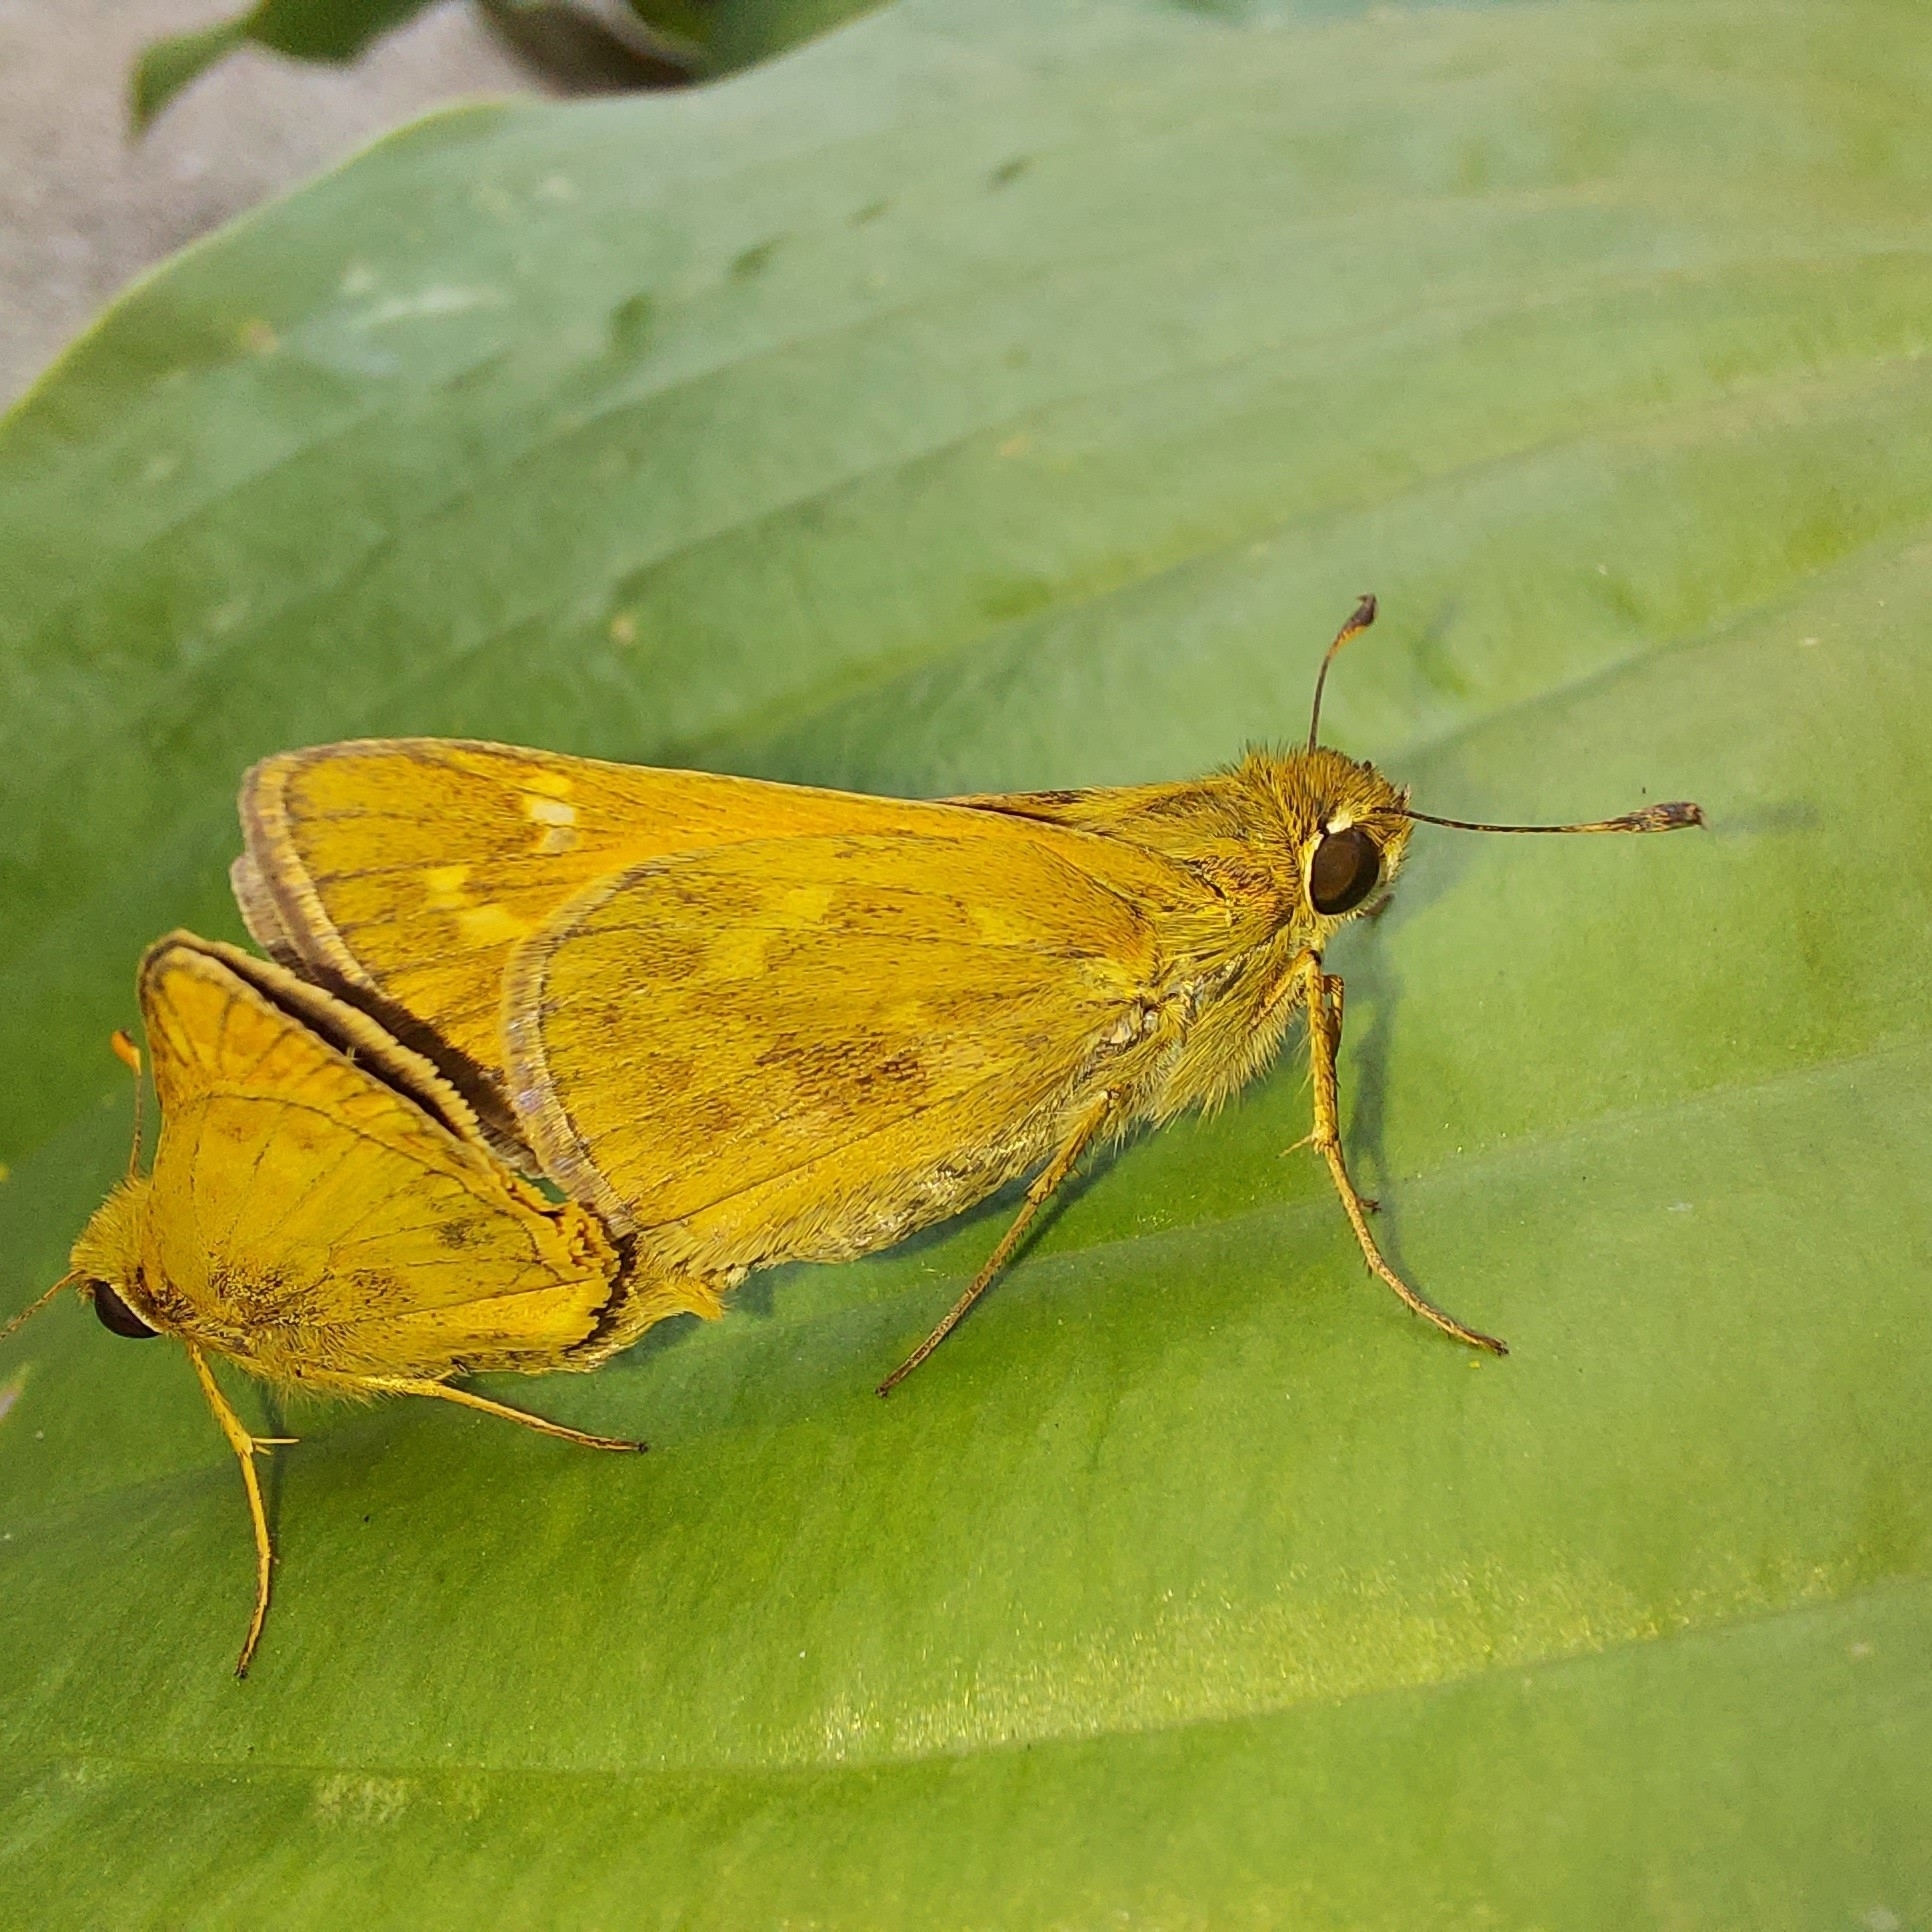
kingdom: Animalia
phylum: Arthropoda
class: Insecta
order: Lepidoptera
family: Hesperiidae
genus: Atalopedes
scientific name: Atalopedes
